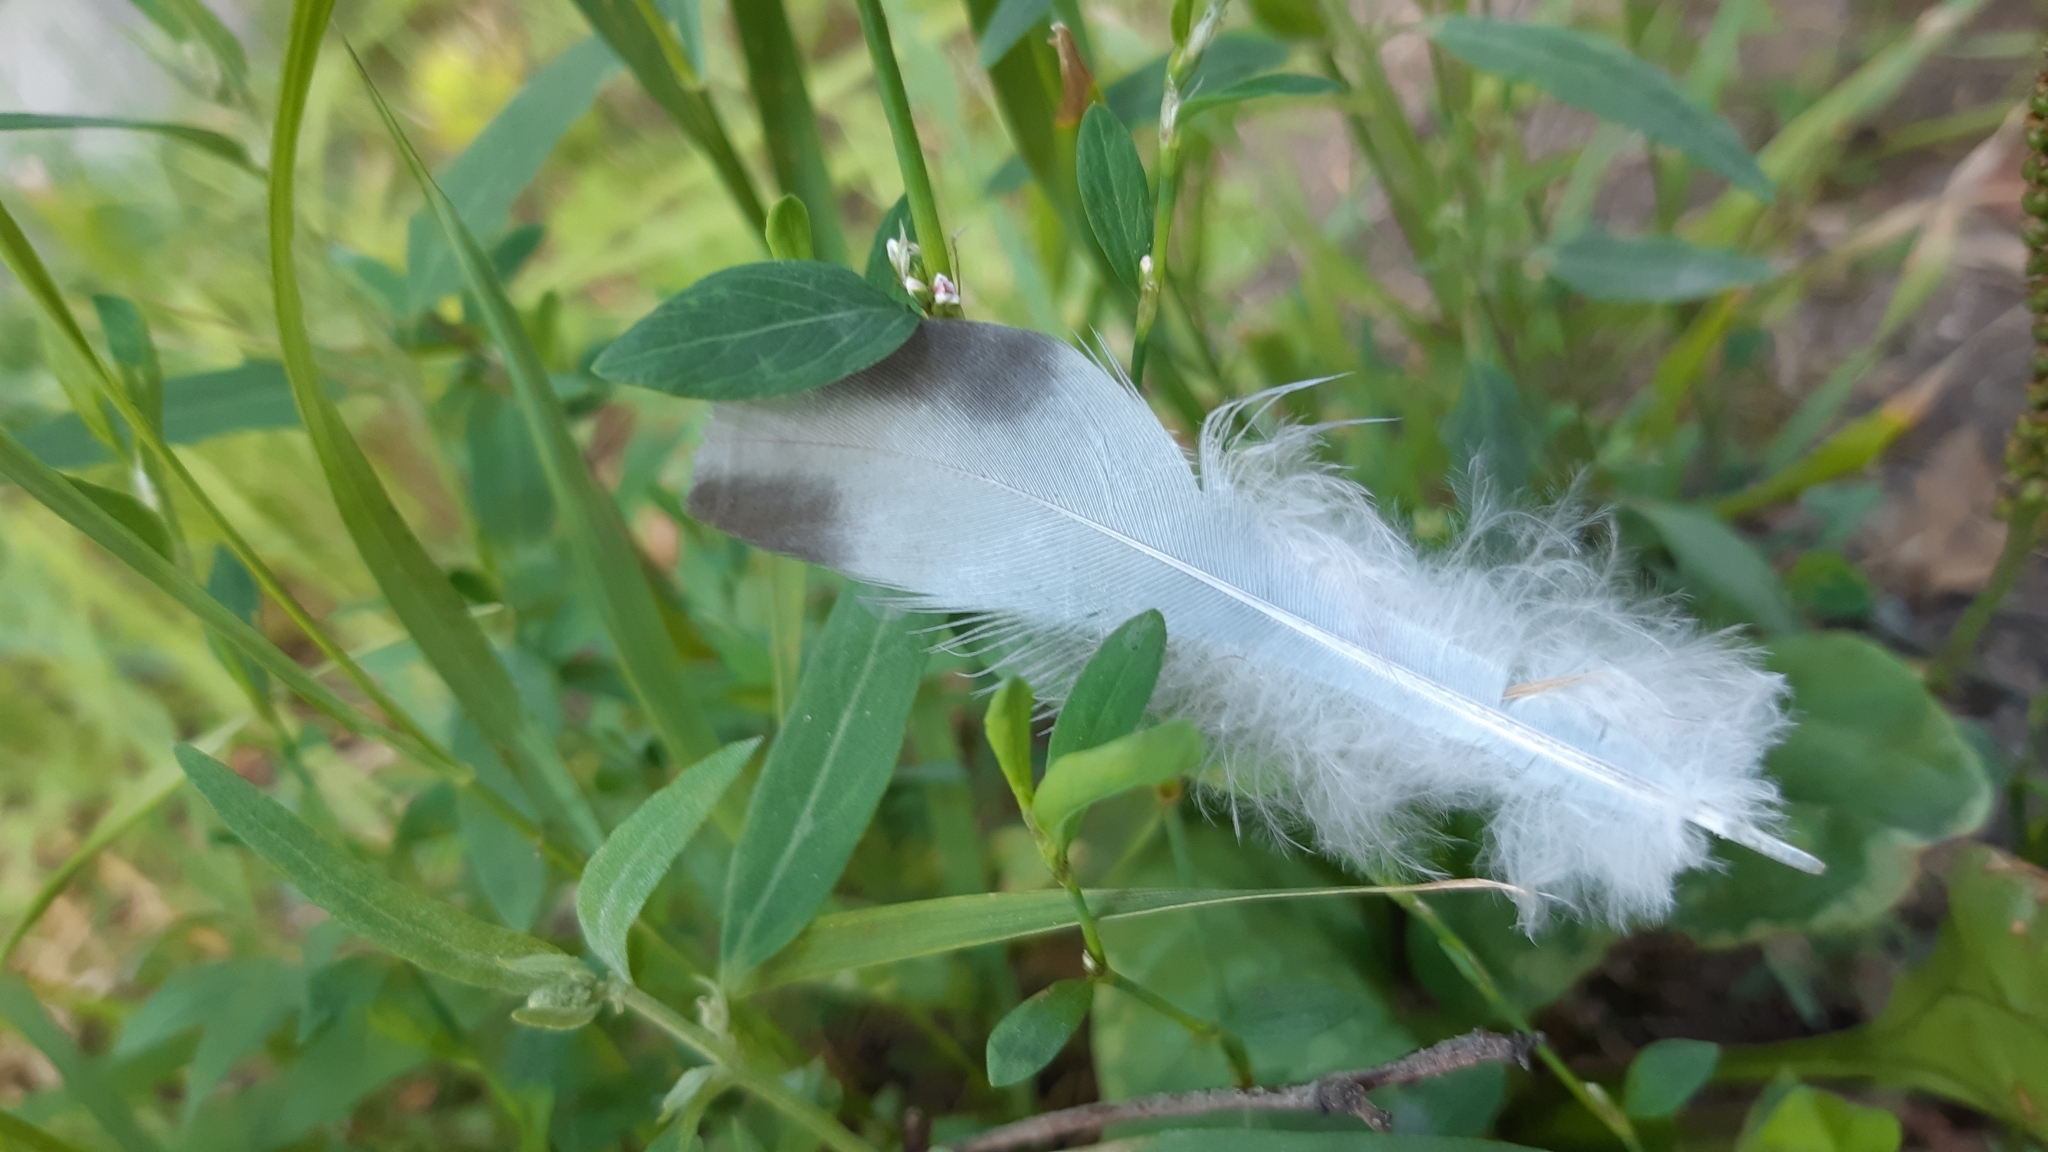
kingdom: Animalia
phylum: Chordata
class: Aves
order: Columbiformes
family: Columbidae
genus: Columba
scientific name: Columba livia
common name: Rock pigeon
